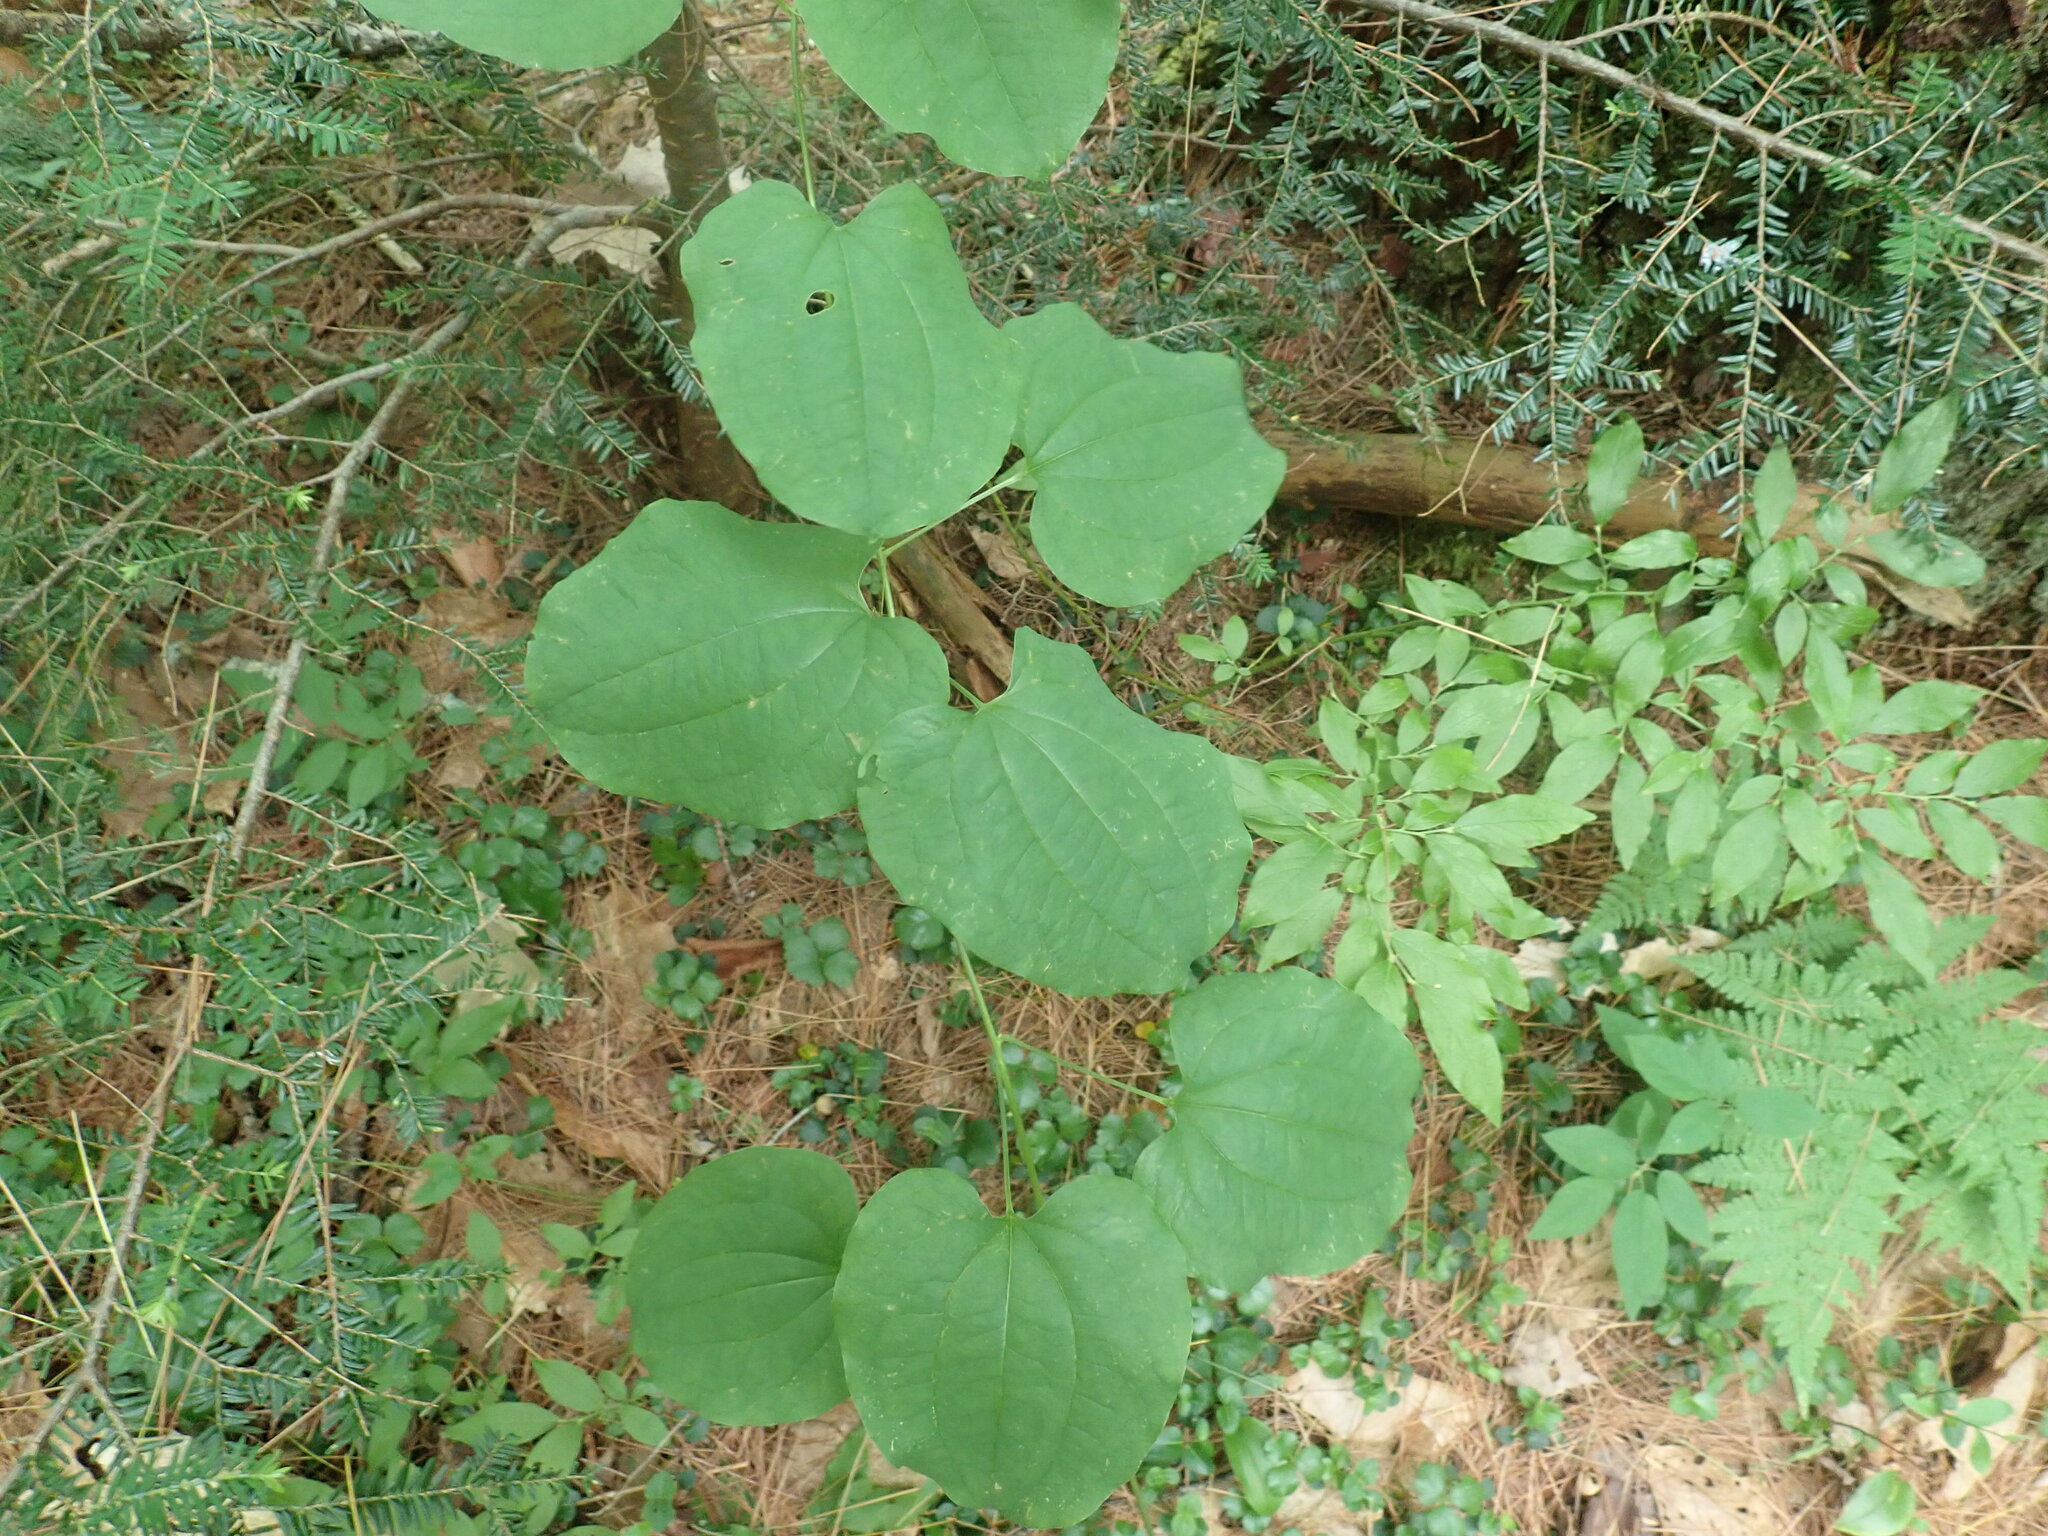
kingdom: Plantae
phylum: Tracheophyta
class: Liliopsida
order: Liliales
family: Smilacaceae
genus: Smilax
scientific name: Smilax herbacea
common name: Jacob's-ladder
